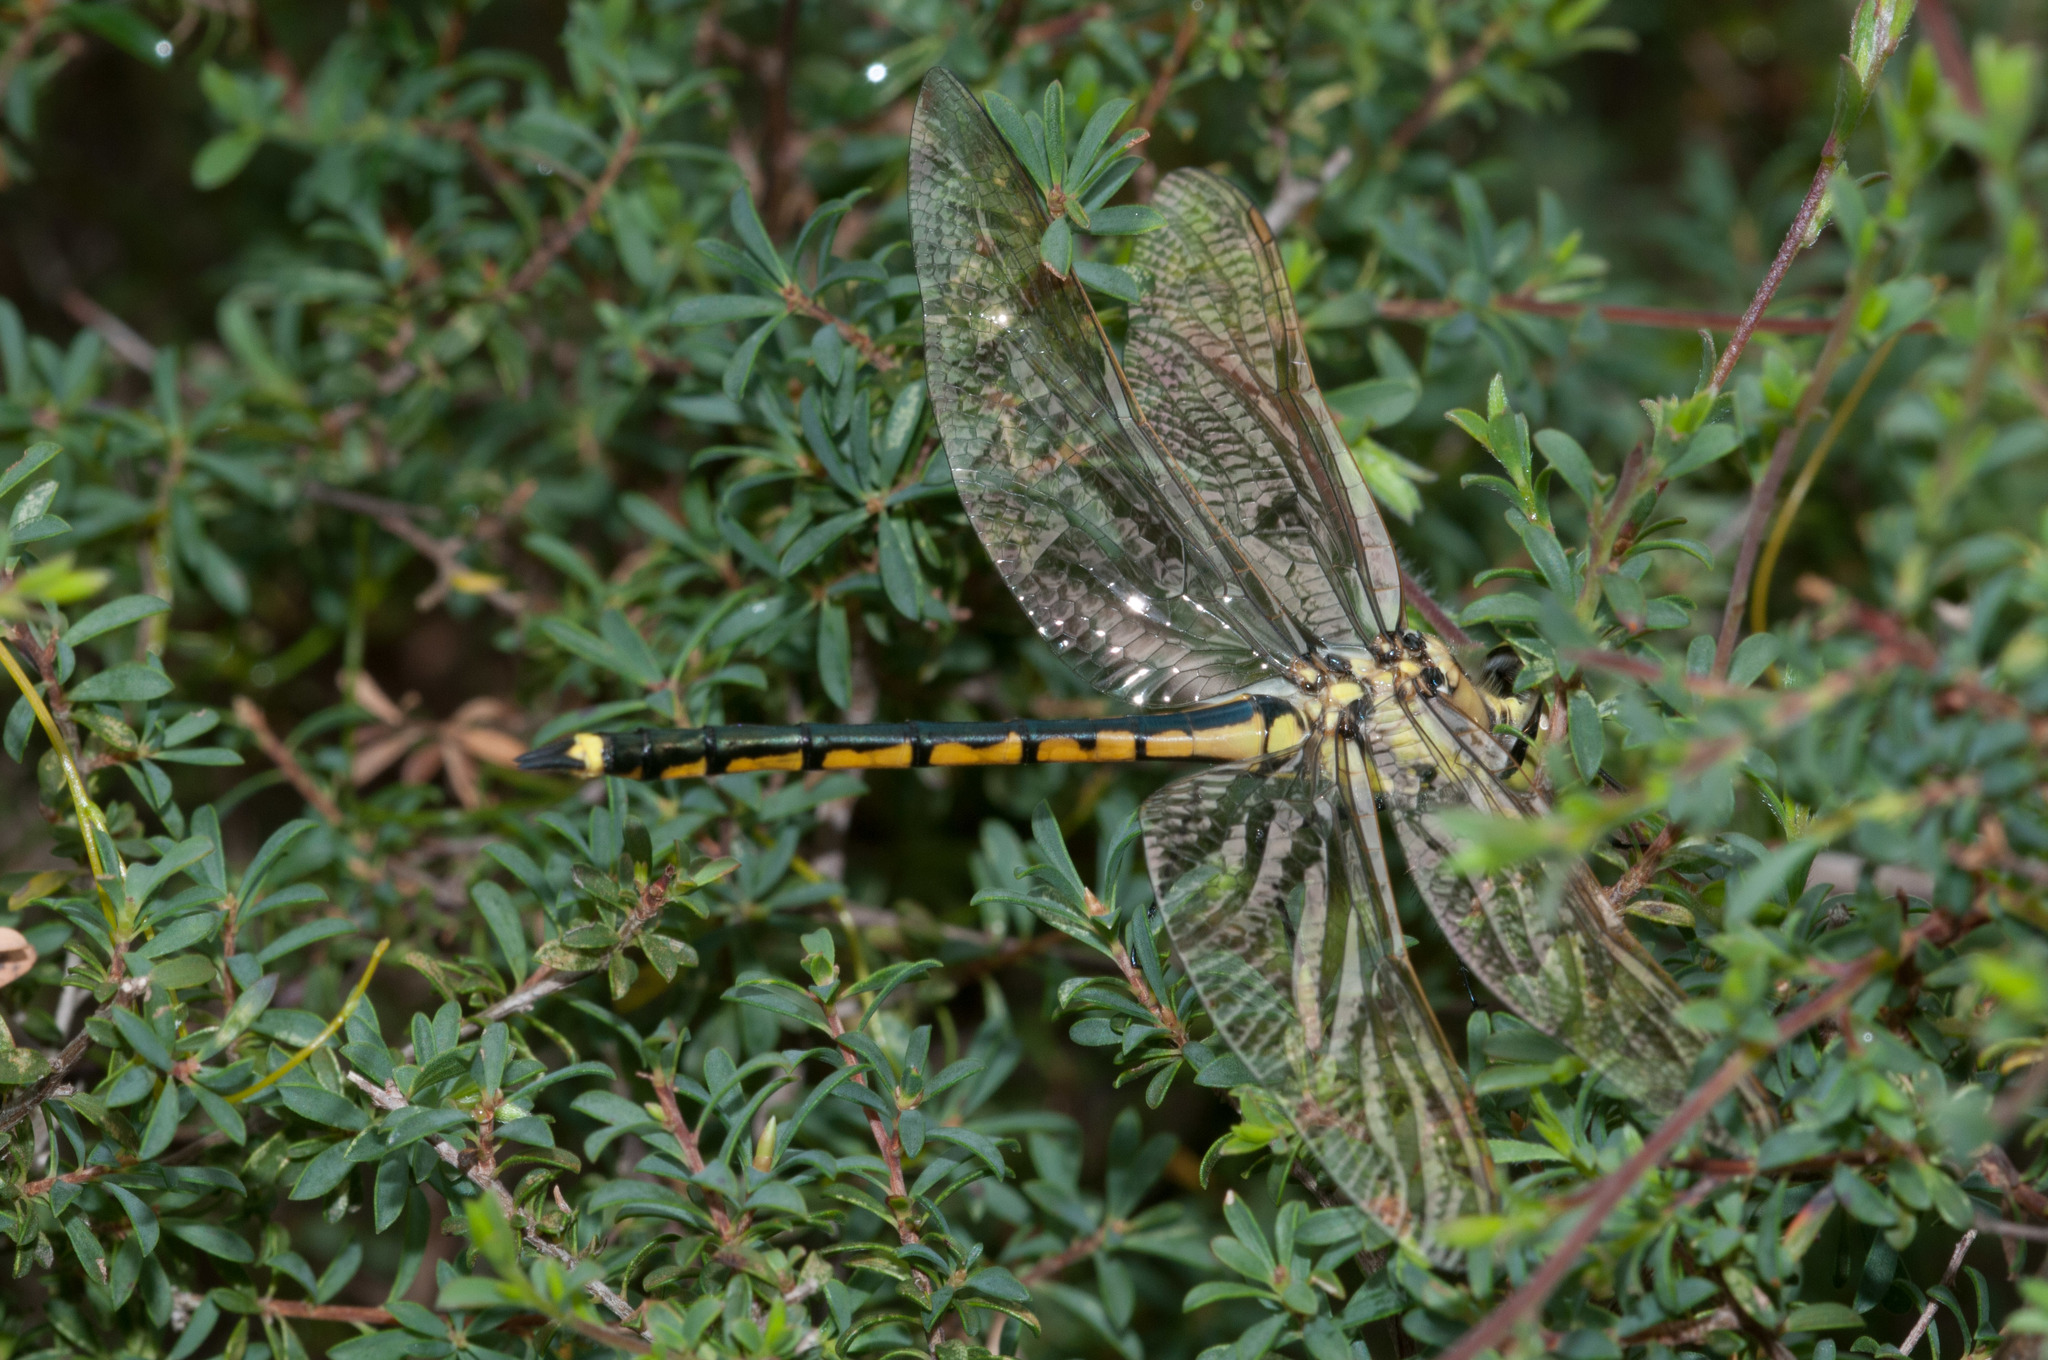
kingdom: Animalia
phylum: Arthropoda
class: Insecta
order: Odonata
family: Corduliidae
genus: Hemicordulia
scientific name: Hemicordulia tau
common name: Tau emerald
